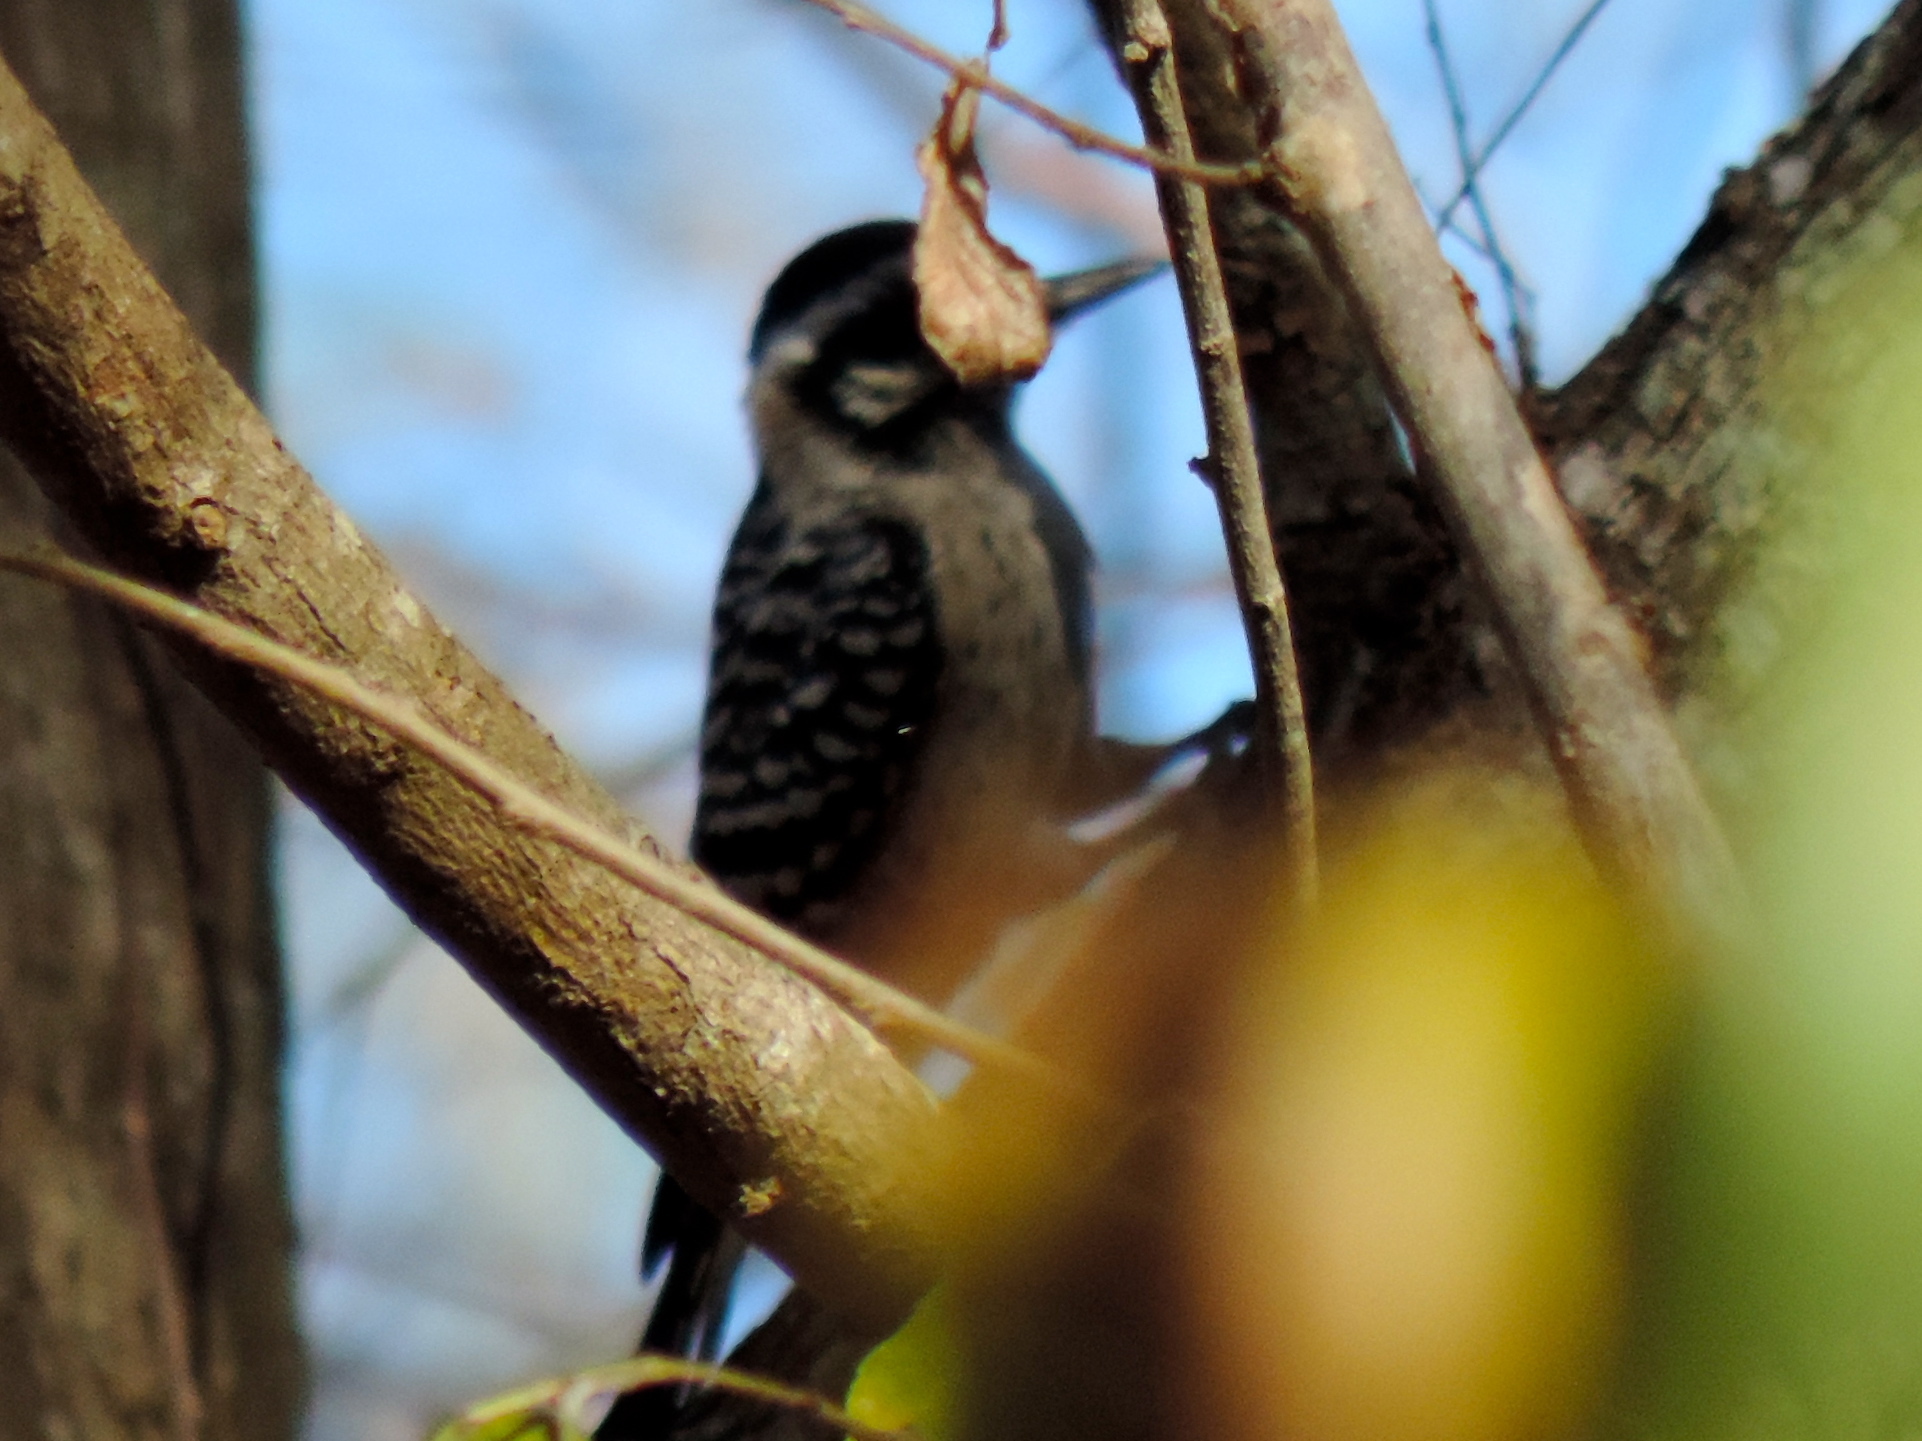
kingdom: Animalia
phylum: Chordata
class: Aves
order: Piciformes
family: Picidae
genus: Dryobates
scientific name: Dryobates scalaris
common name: Ladder-backed woodpecker
